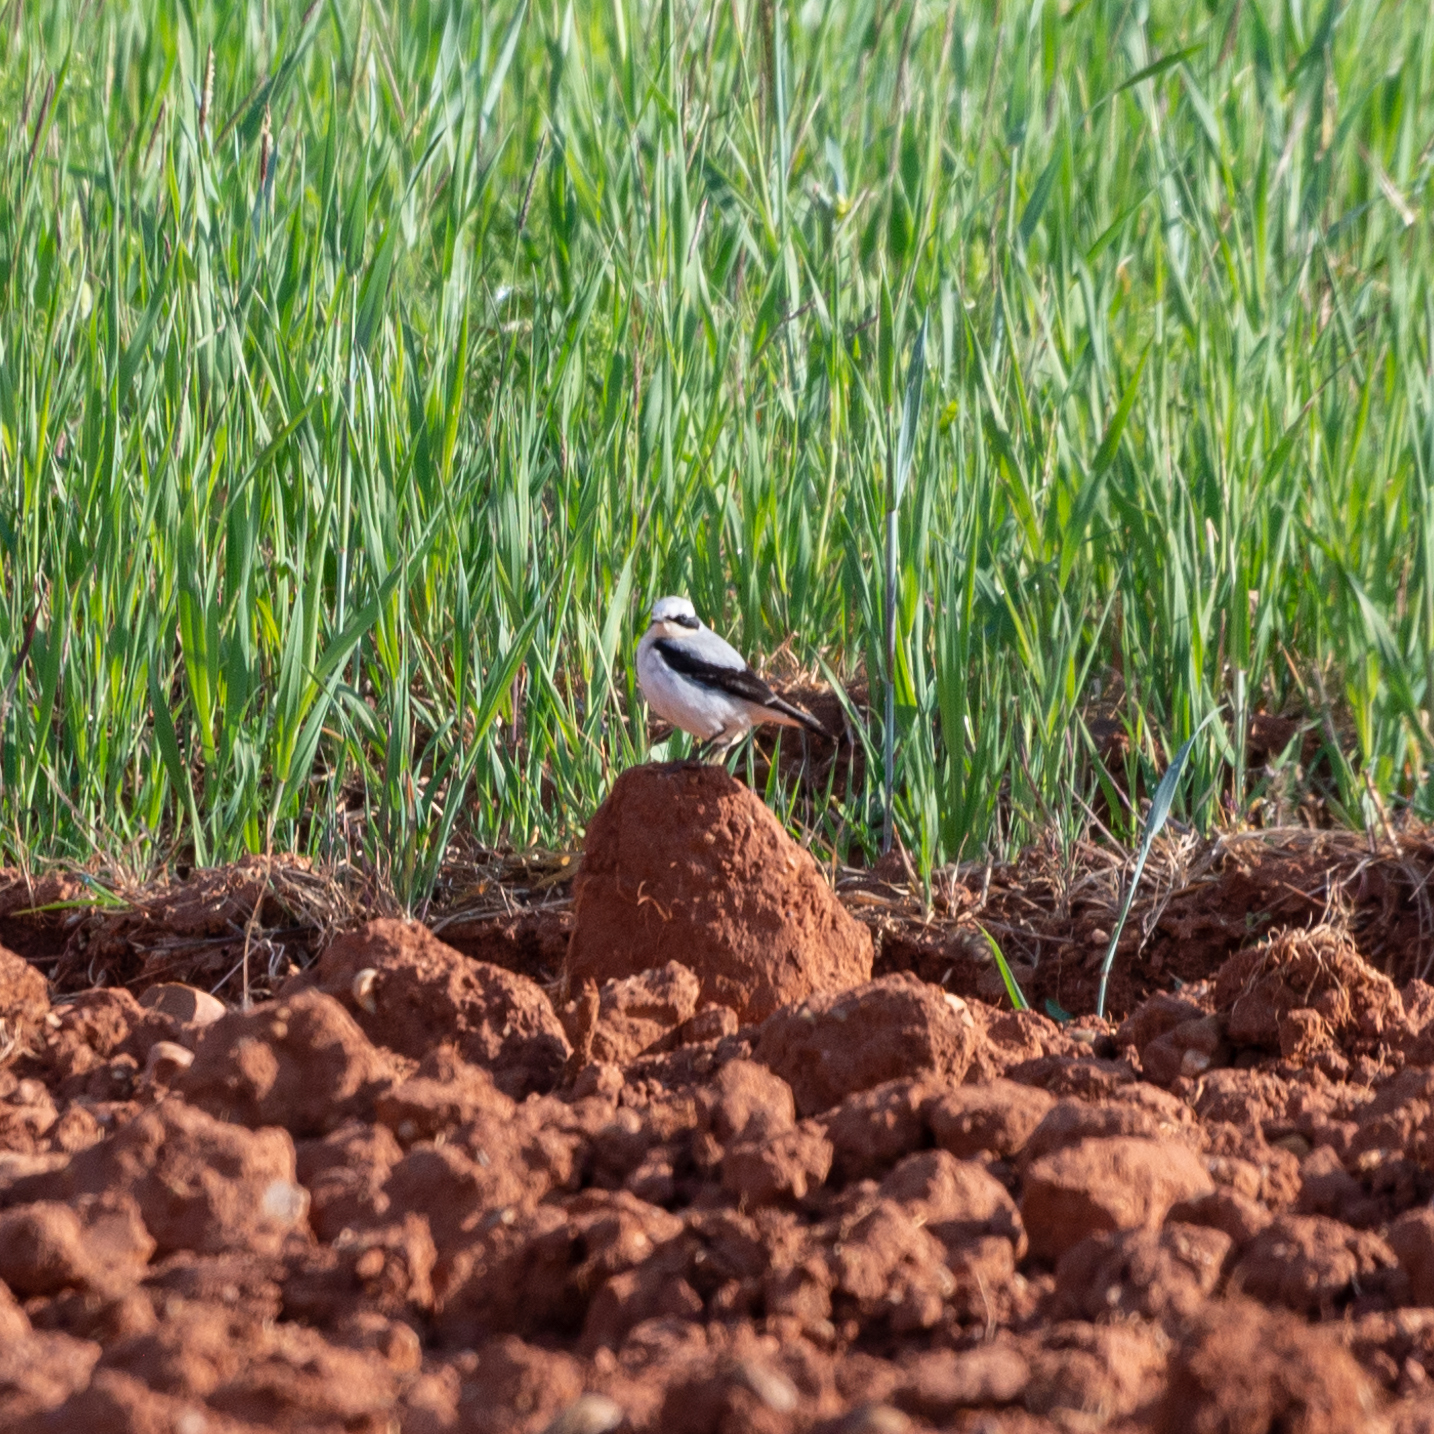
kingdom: Animalia
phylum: Chordata
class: Aves
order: Passeriformes
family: Muscicapidae
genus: Oenanthe
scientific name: Oenanthe oenanthe
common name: Northern wheatear
